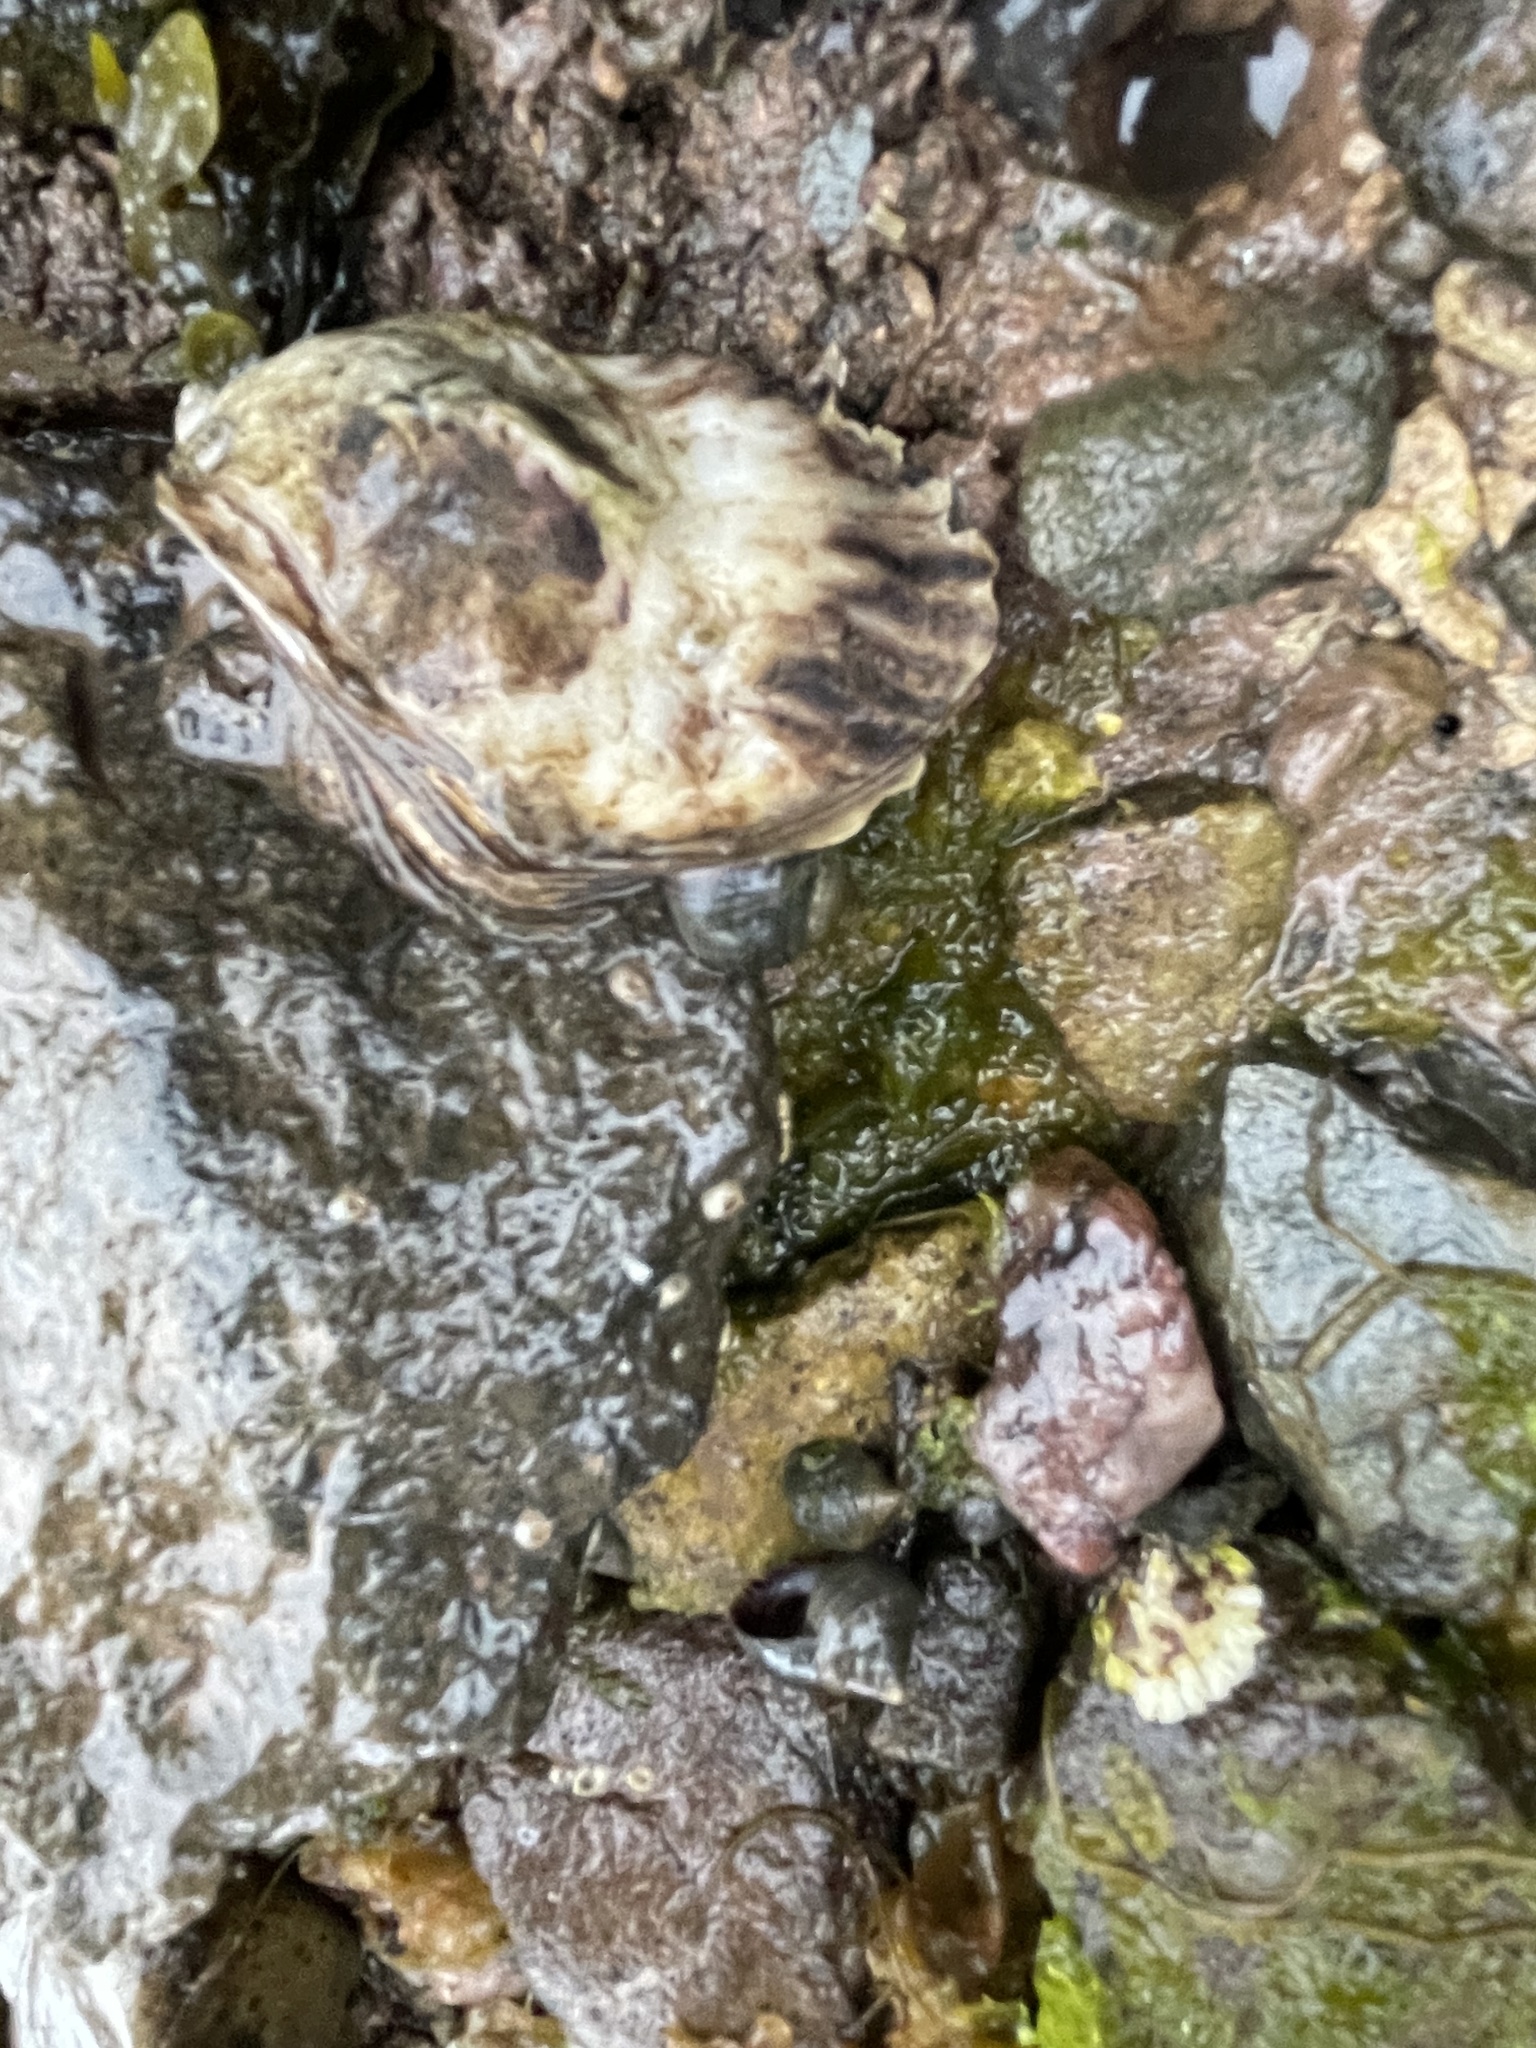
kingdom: Animalia
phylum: Mollusca
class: Bivalvia
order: Ostreida
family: Ostreidae
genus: Crassostrea
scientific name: Crassostrea virginica
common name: American oyster
